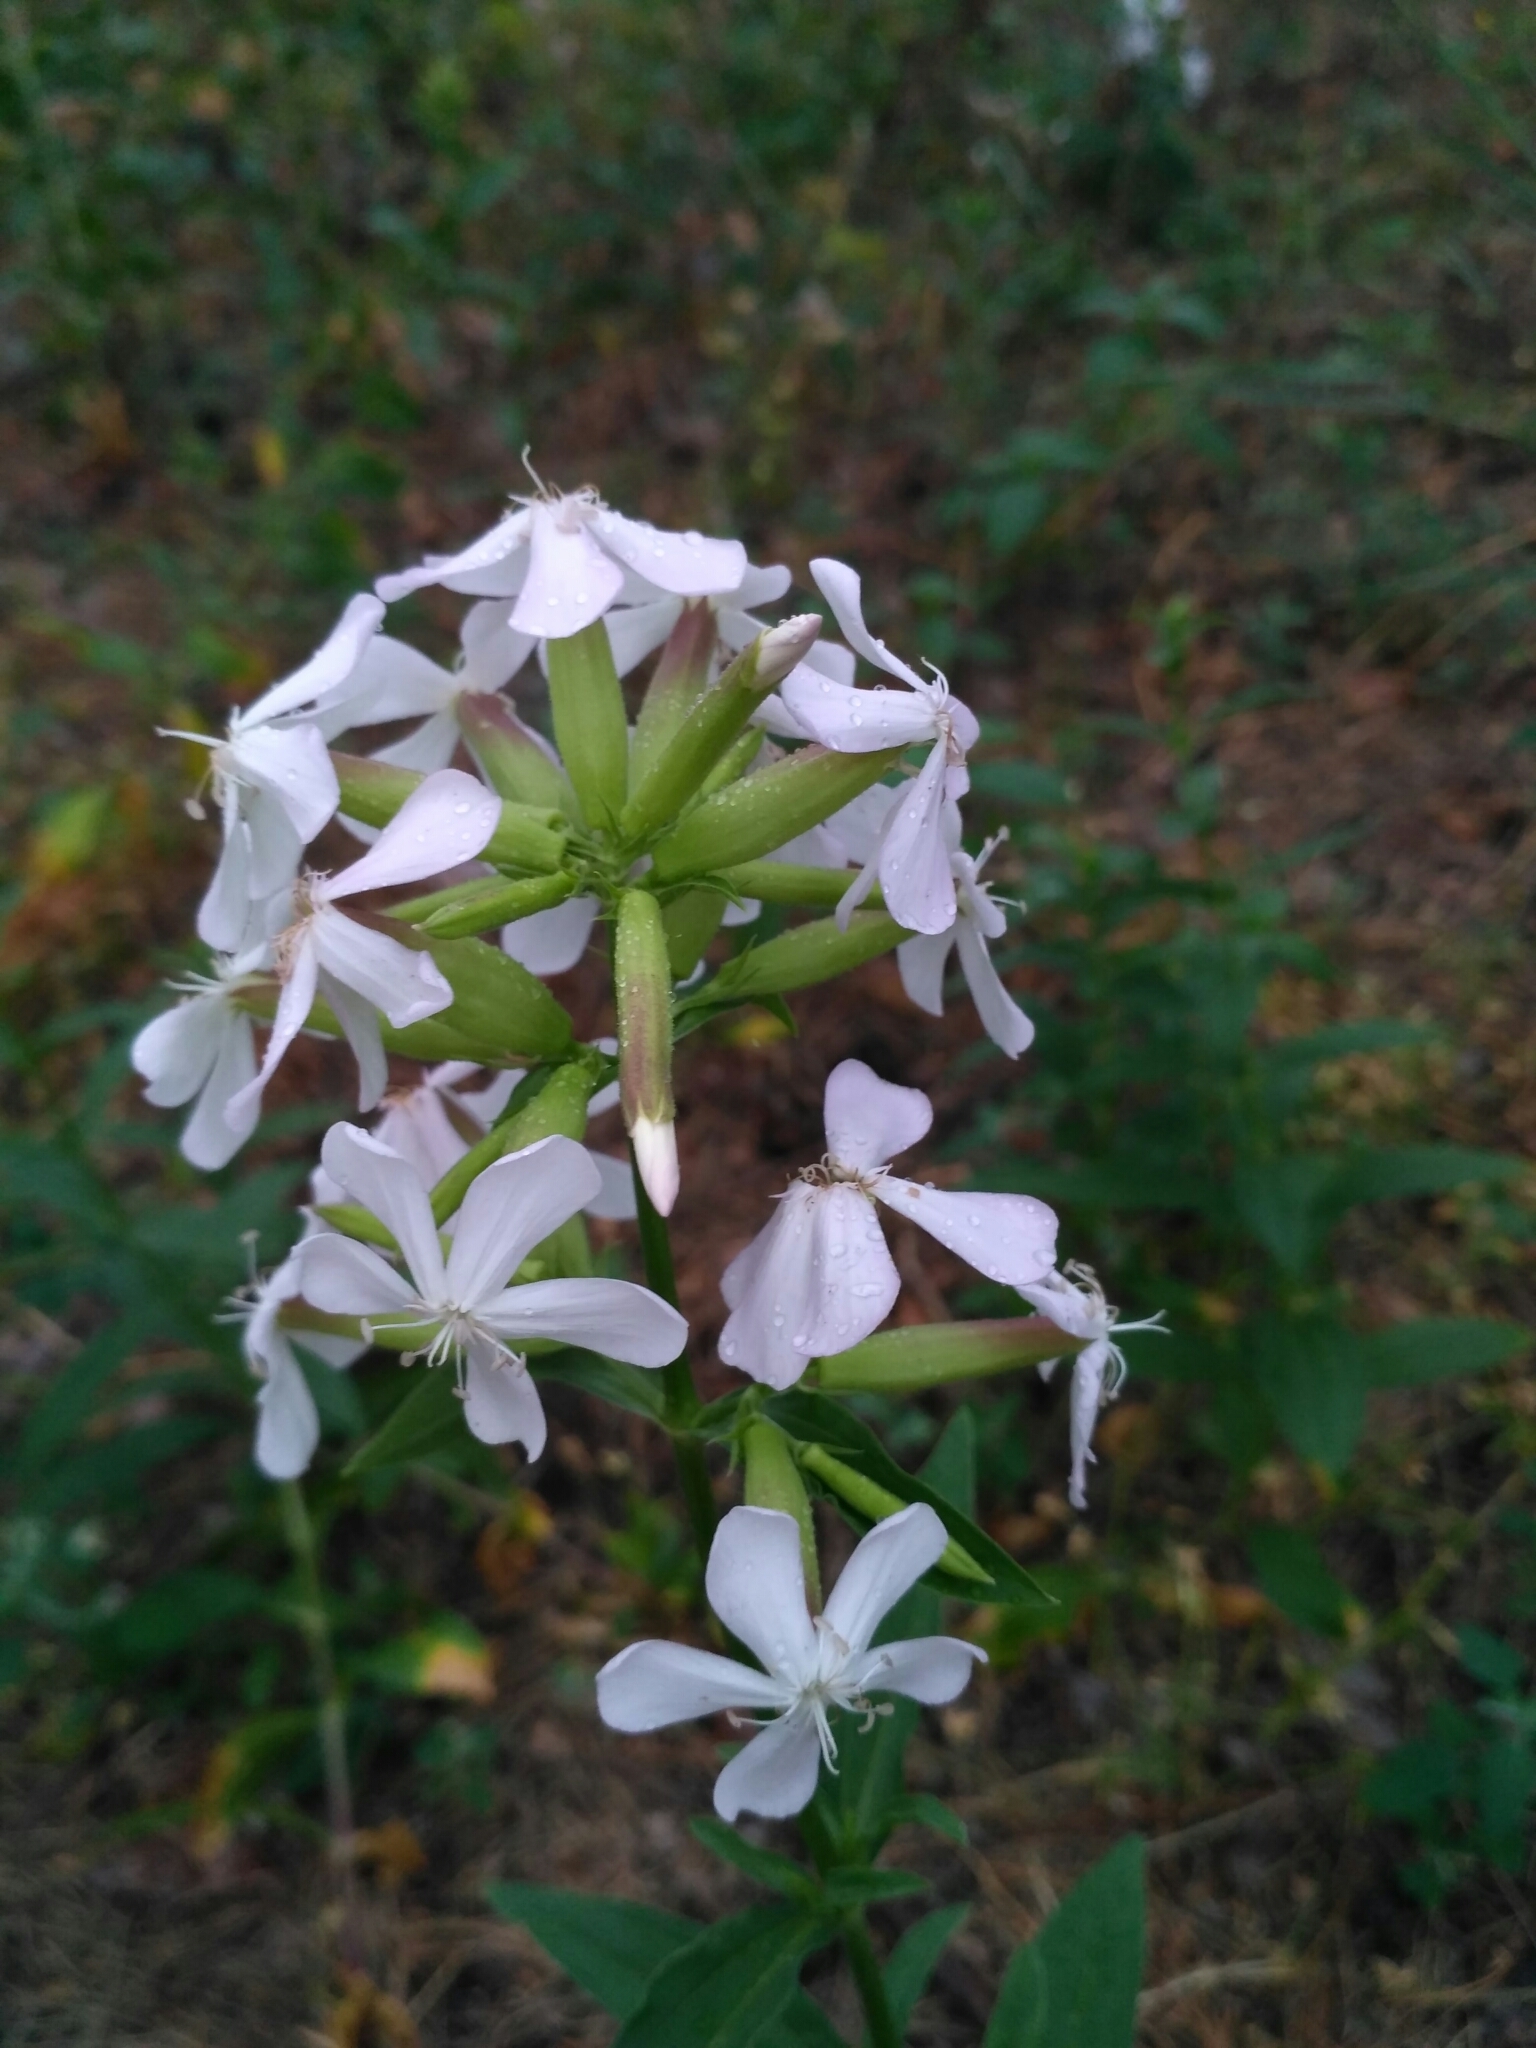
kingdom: Plantae
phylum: Tracheophyta
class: Magnoliopsida
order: Caryophyllales
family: Caryophyllaceae
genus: Saponaria
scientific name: Saponaria officinalis
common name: Soapwort
